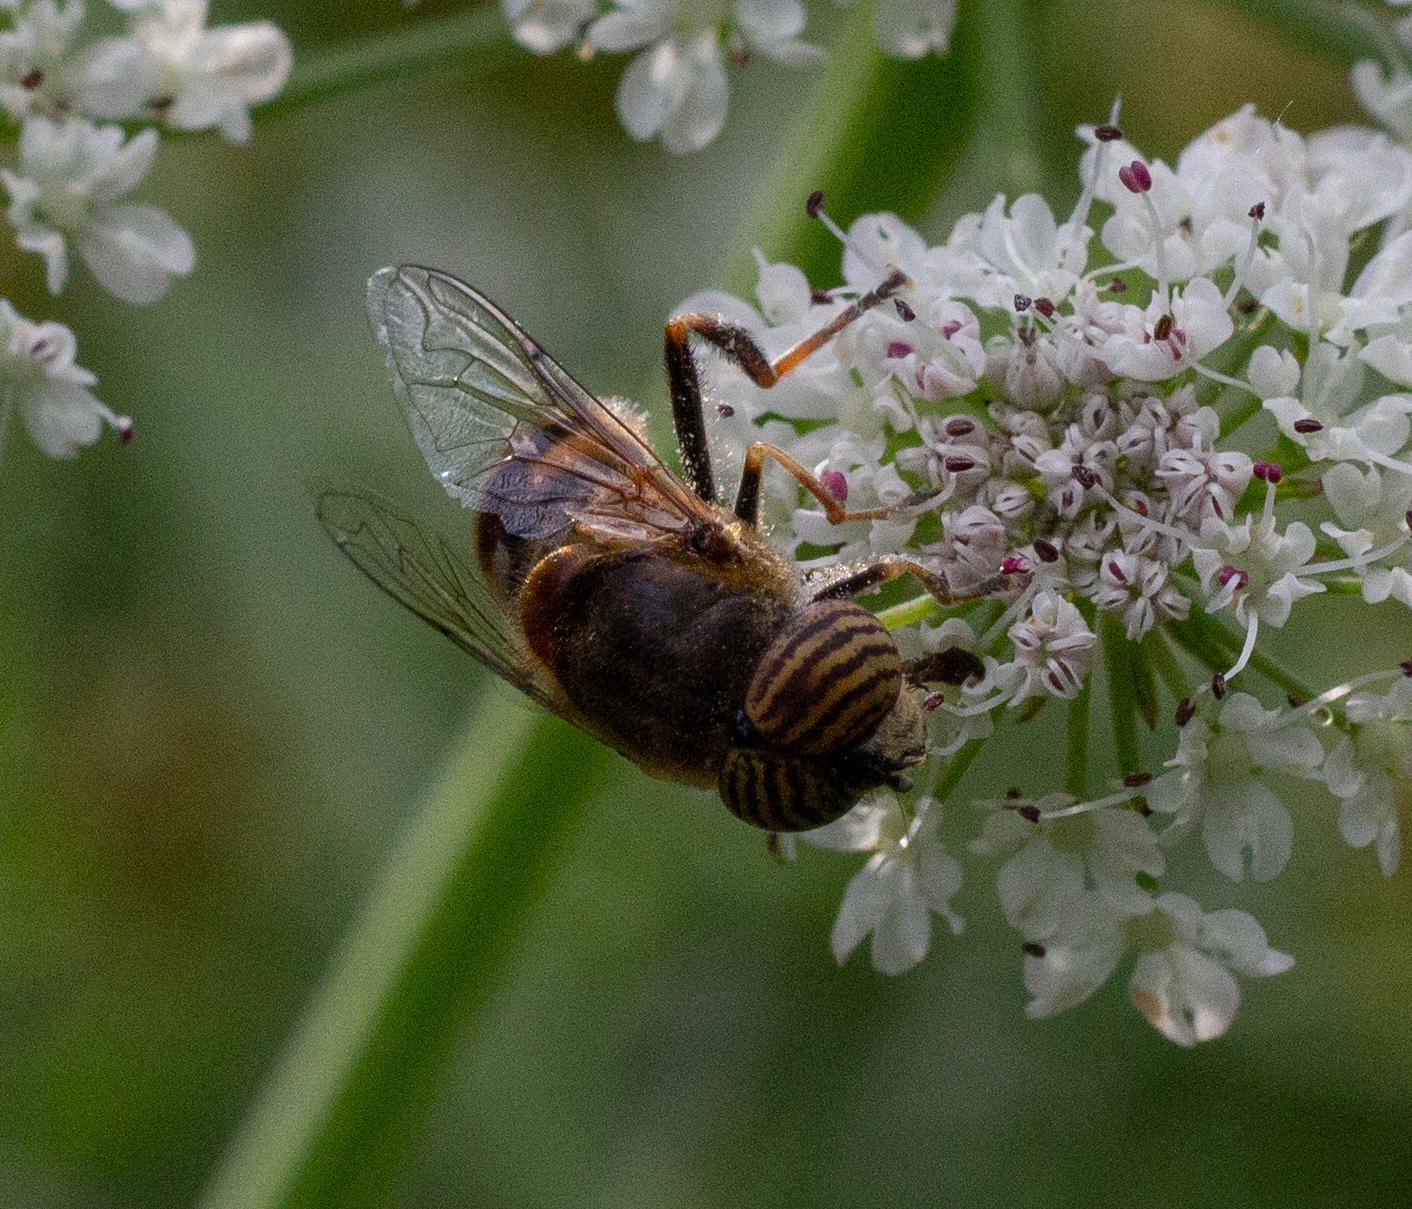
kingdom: Animalia
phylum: Arthropoda
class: Insecta
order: Diptera
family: Syrphidae
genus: Eristalinus
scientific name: Eristalinus taeniops
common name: Syrphid fly
